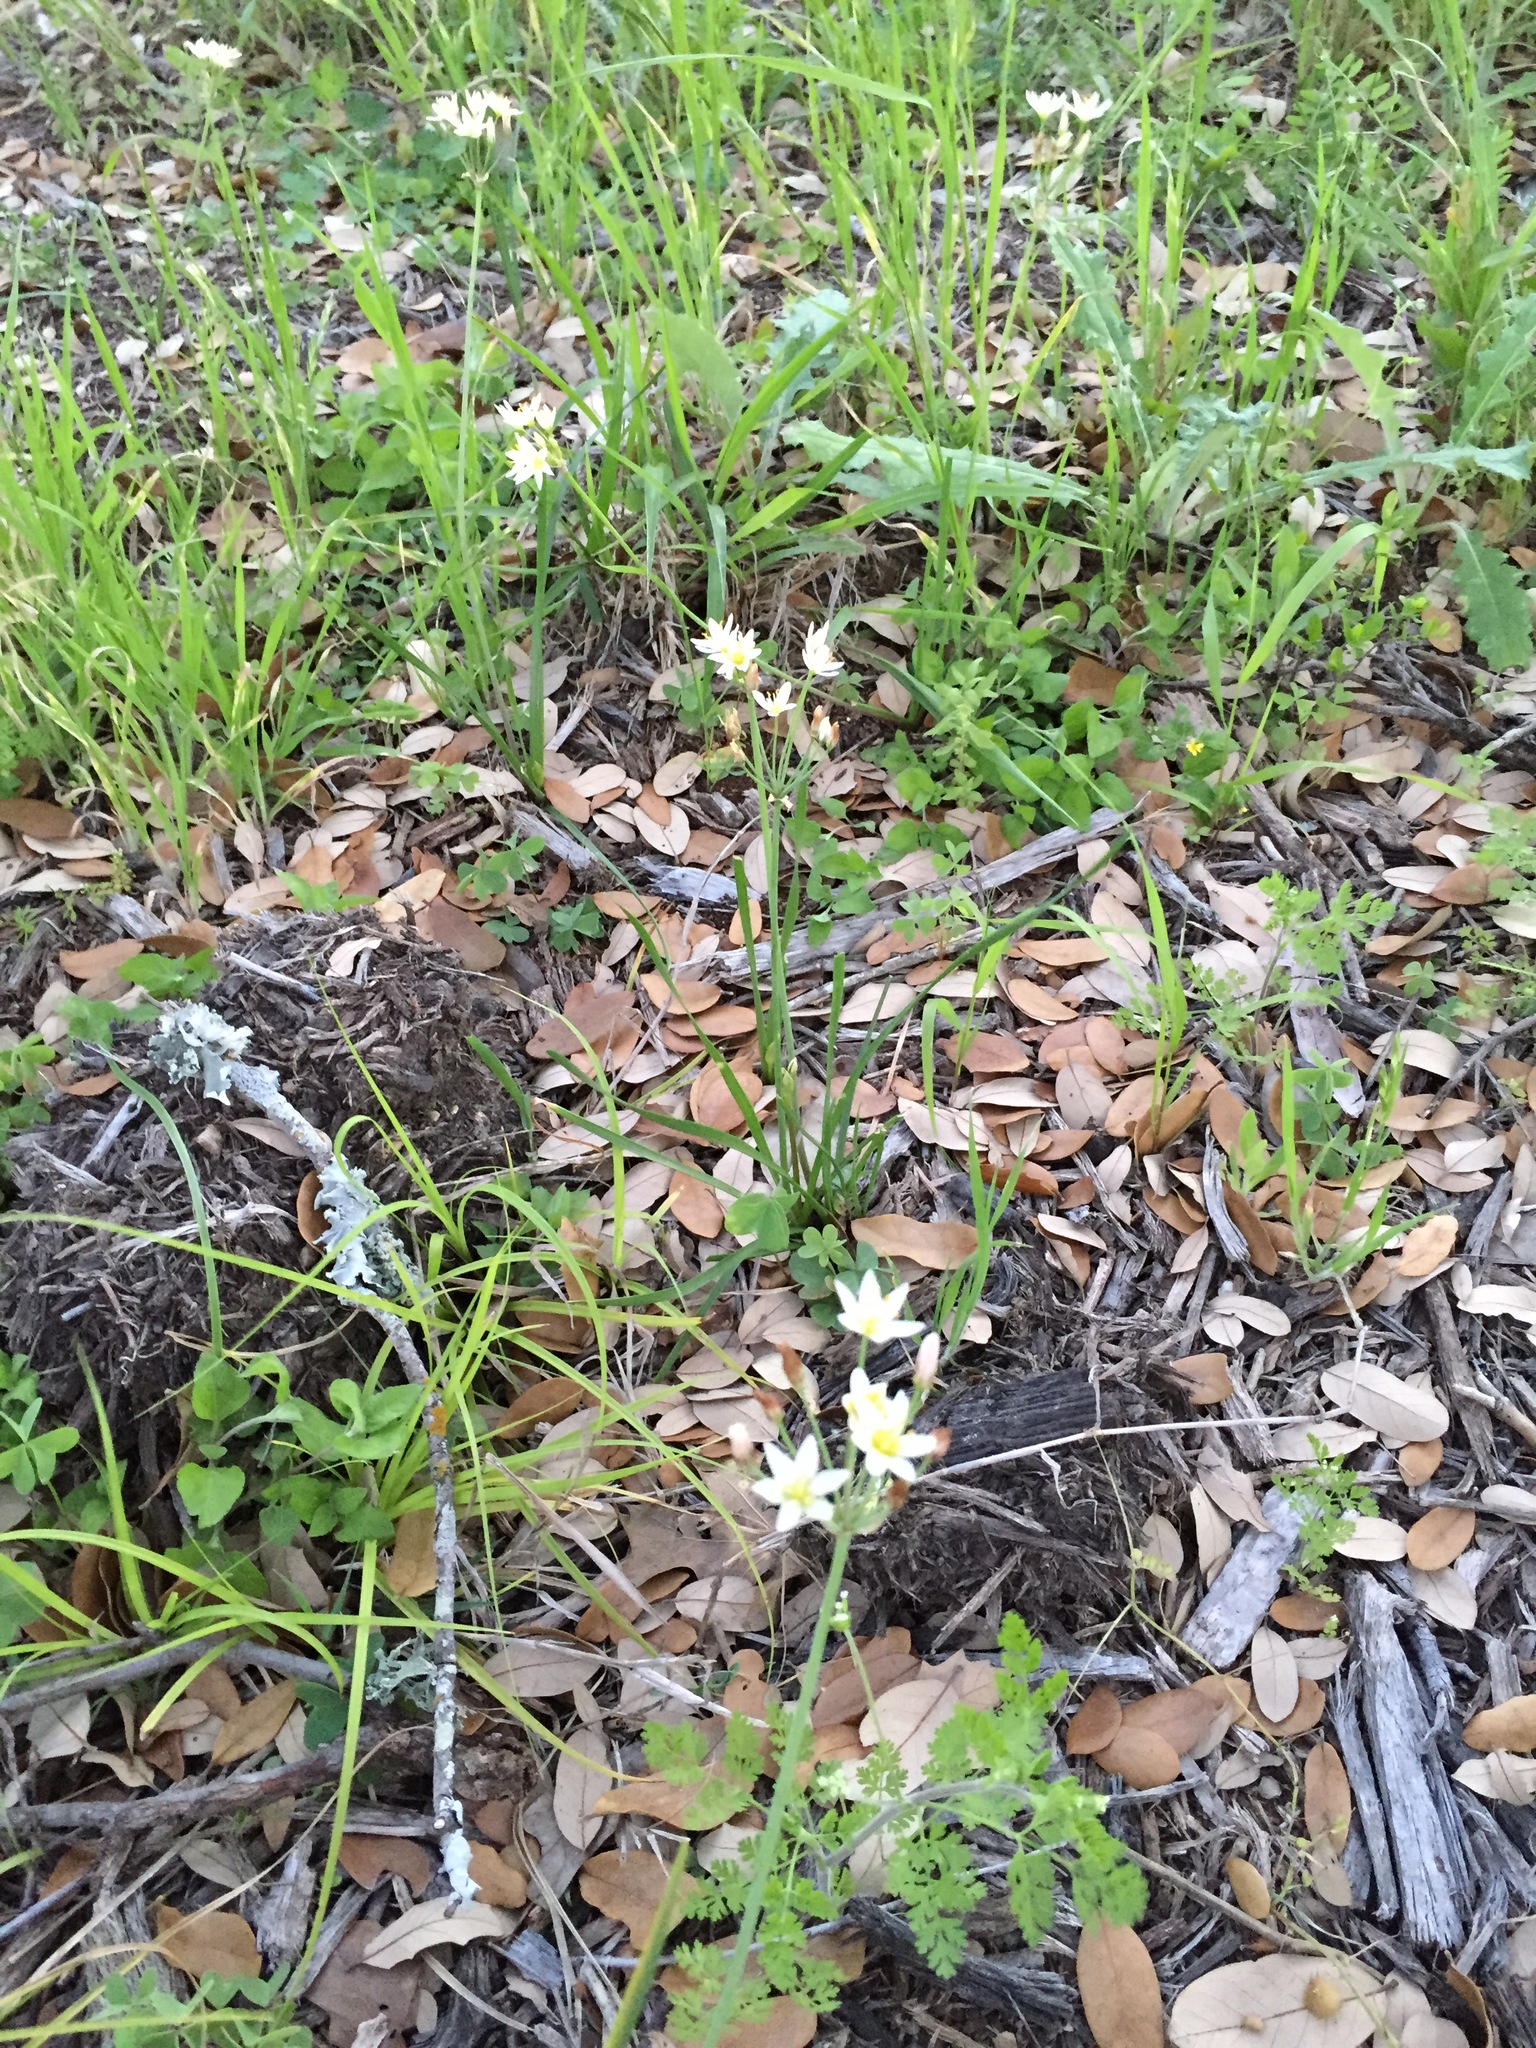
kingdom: Plantae
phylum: Tracheophyta
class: Liliopsida
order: Asparagales
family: Amaryllidaceae
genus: Nothoscordum
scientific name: Nothoscordum bivalve
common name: Crow-poison
